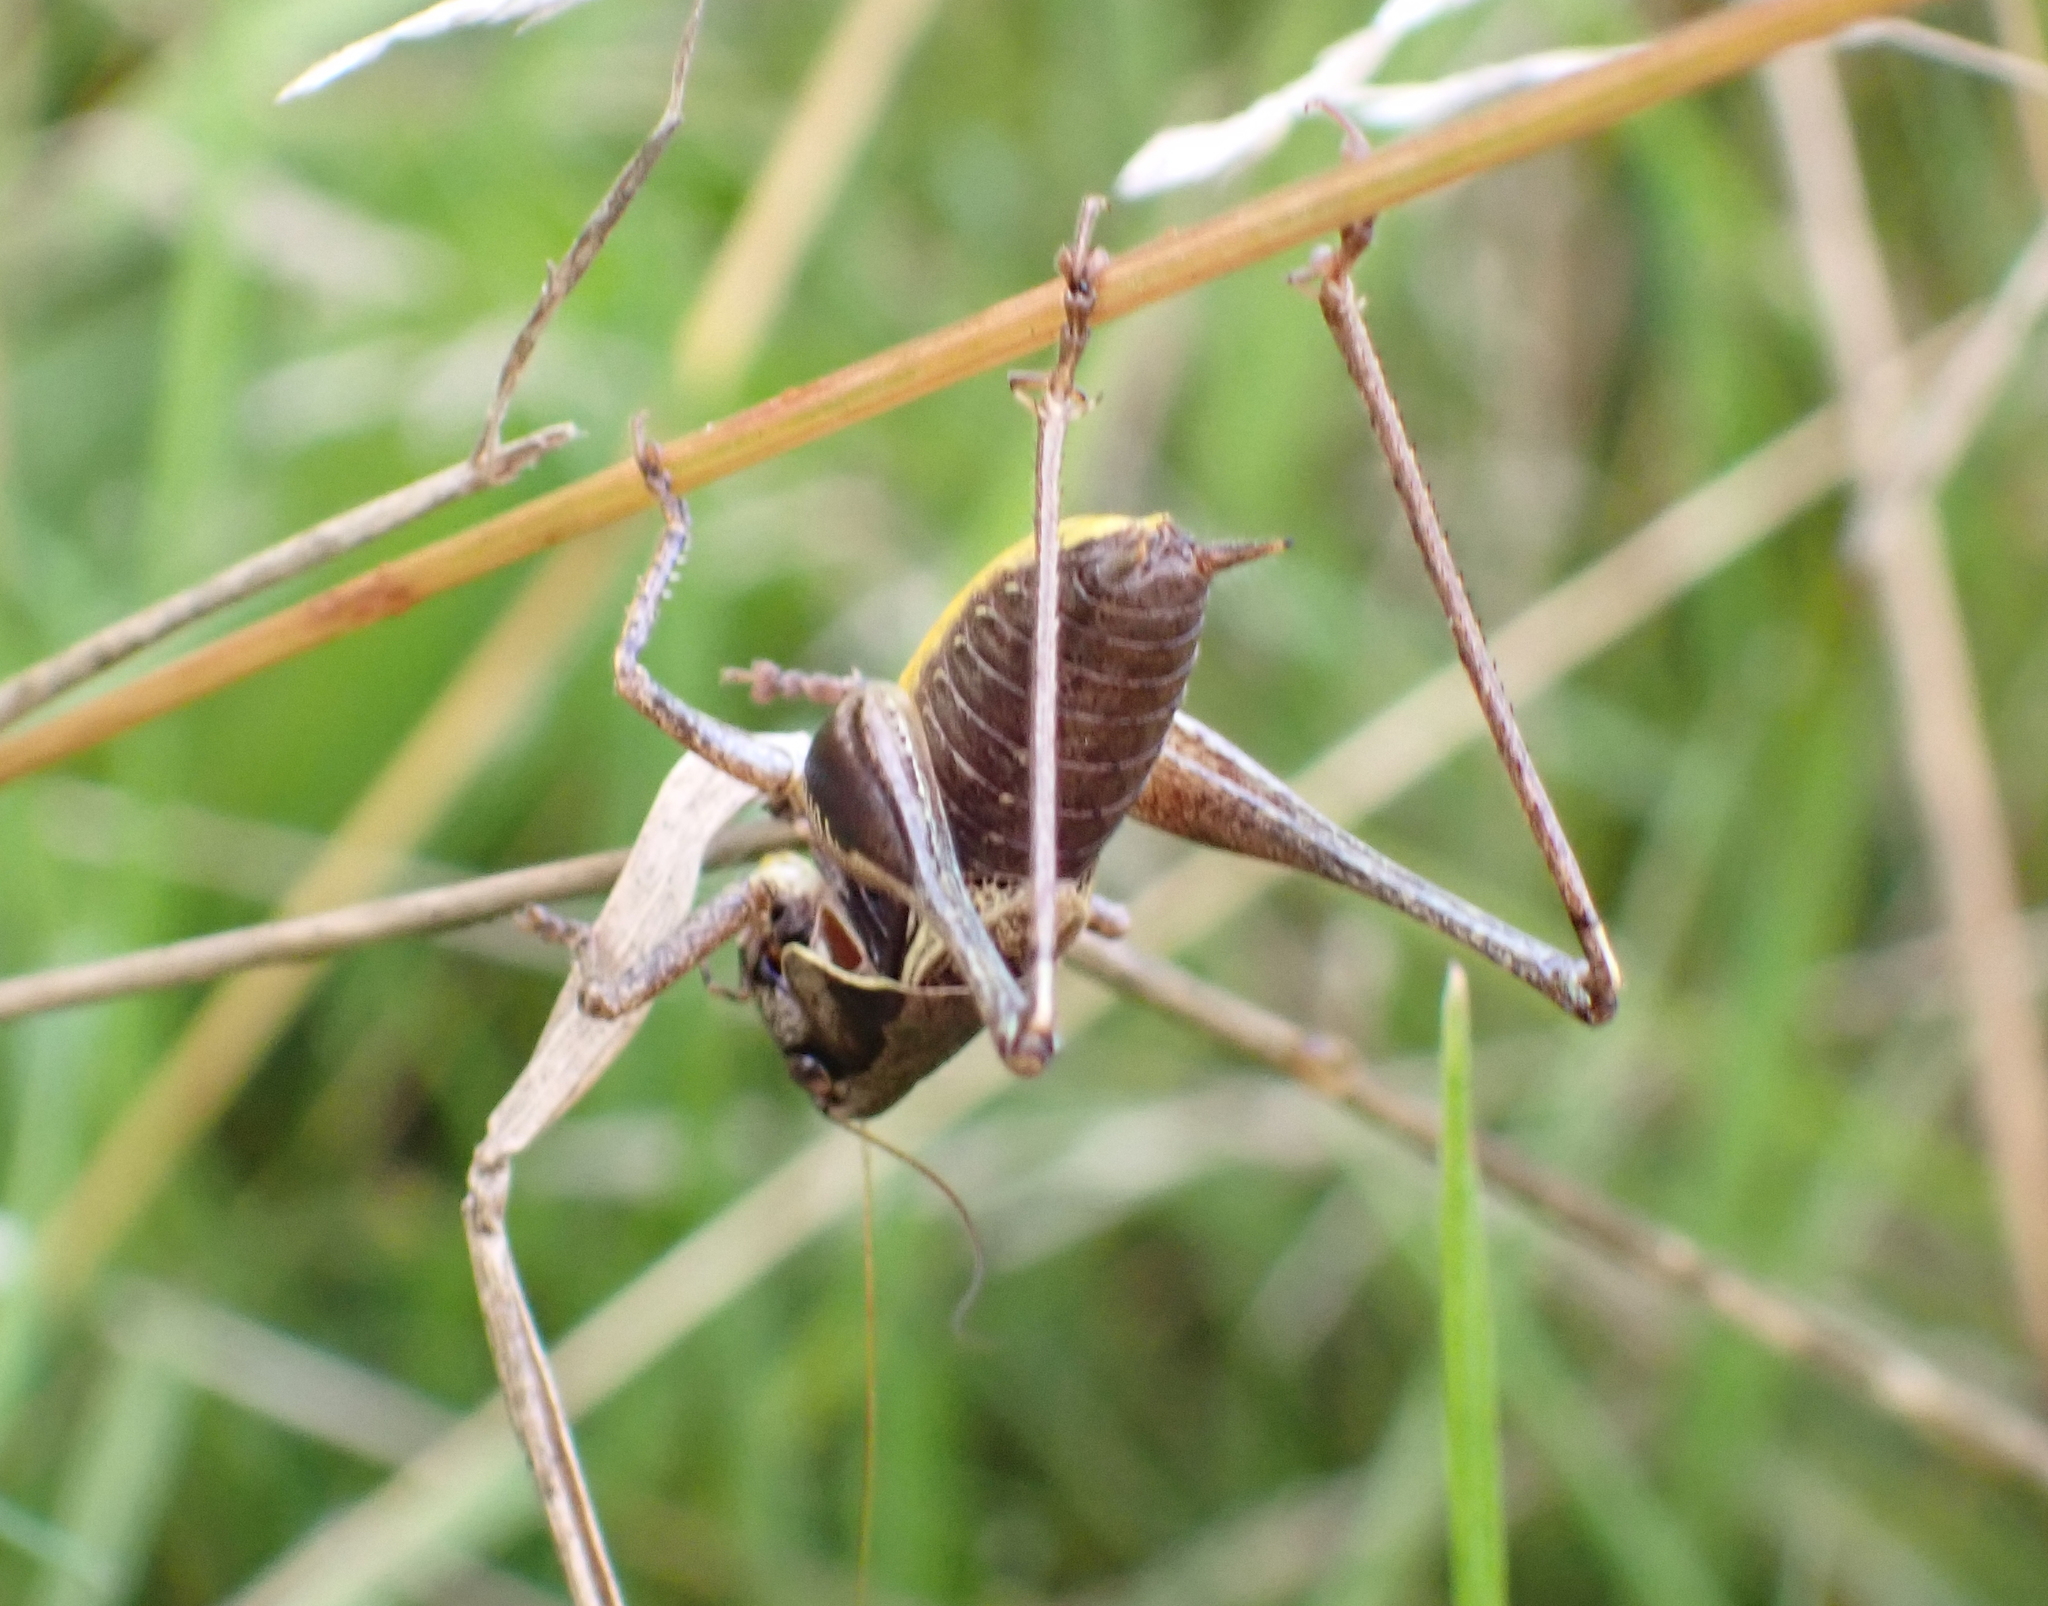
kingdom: Animalia
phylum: Arthropoda
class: Insecta
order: Orthoptera
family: Tettigoniidae
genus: Pholidoptera
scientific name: Pholidoptera griseoaptera
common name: Dark bush-cricket
